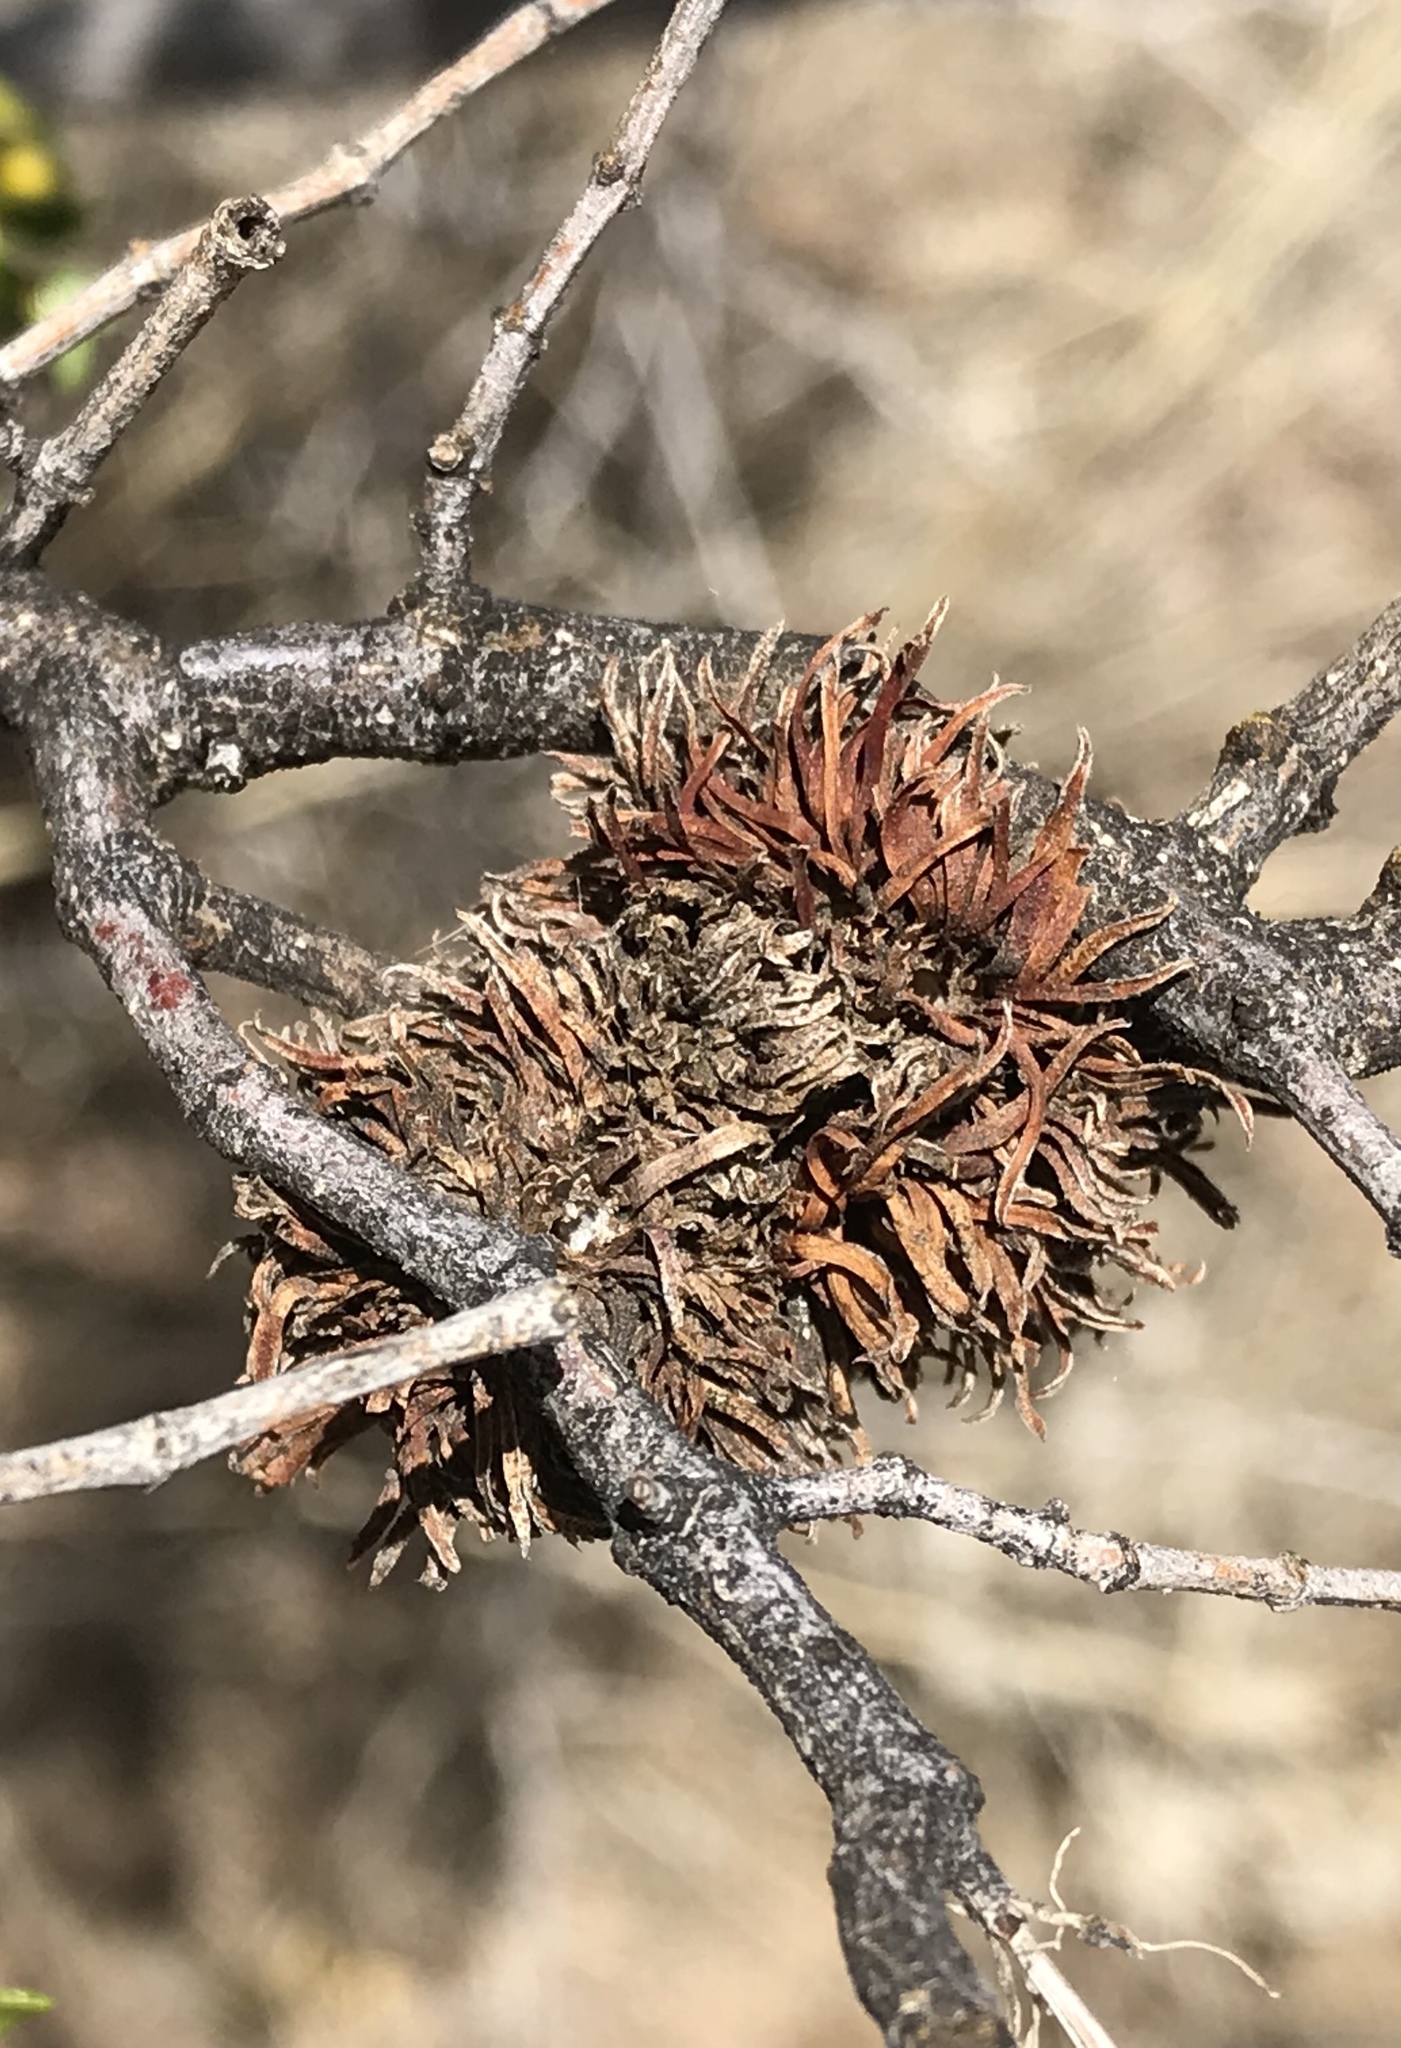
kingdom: Animalia
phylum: Arthropoda
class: Insecta
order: Diptera
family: Cecidomyiidae
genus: Asphondylia
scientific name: Asphondylia auripila
